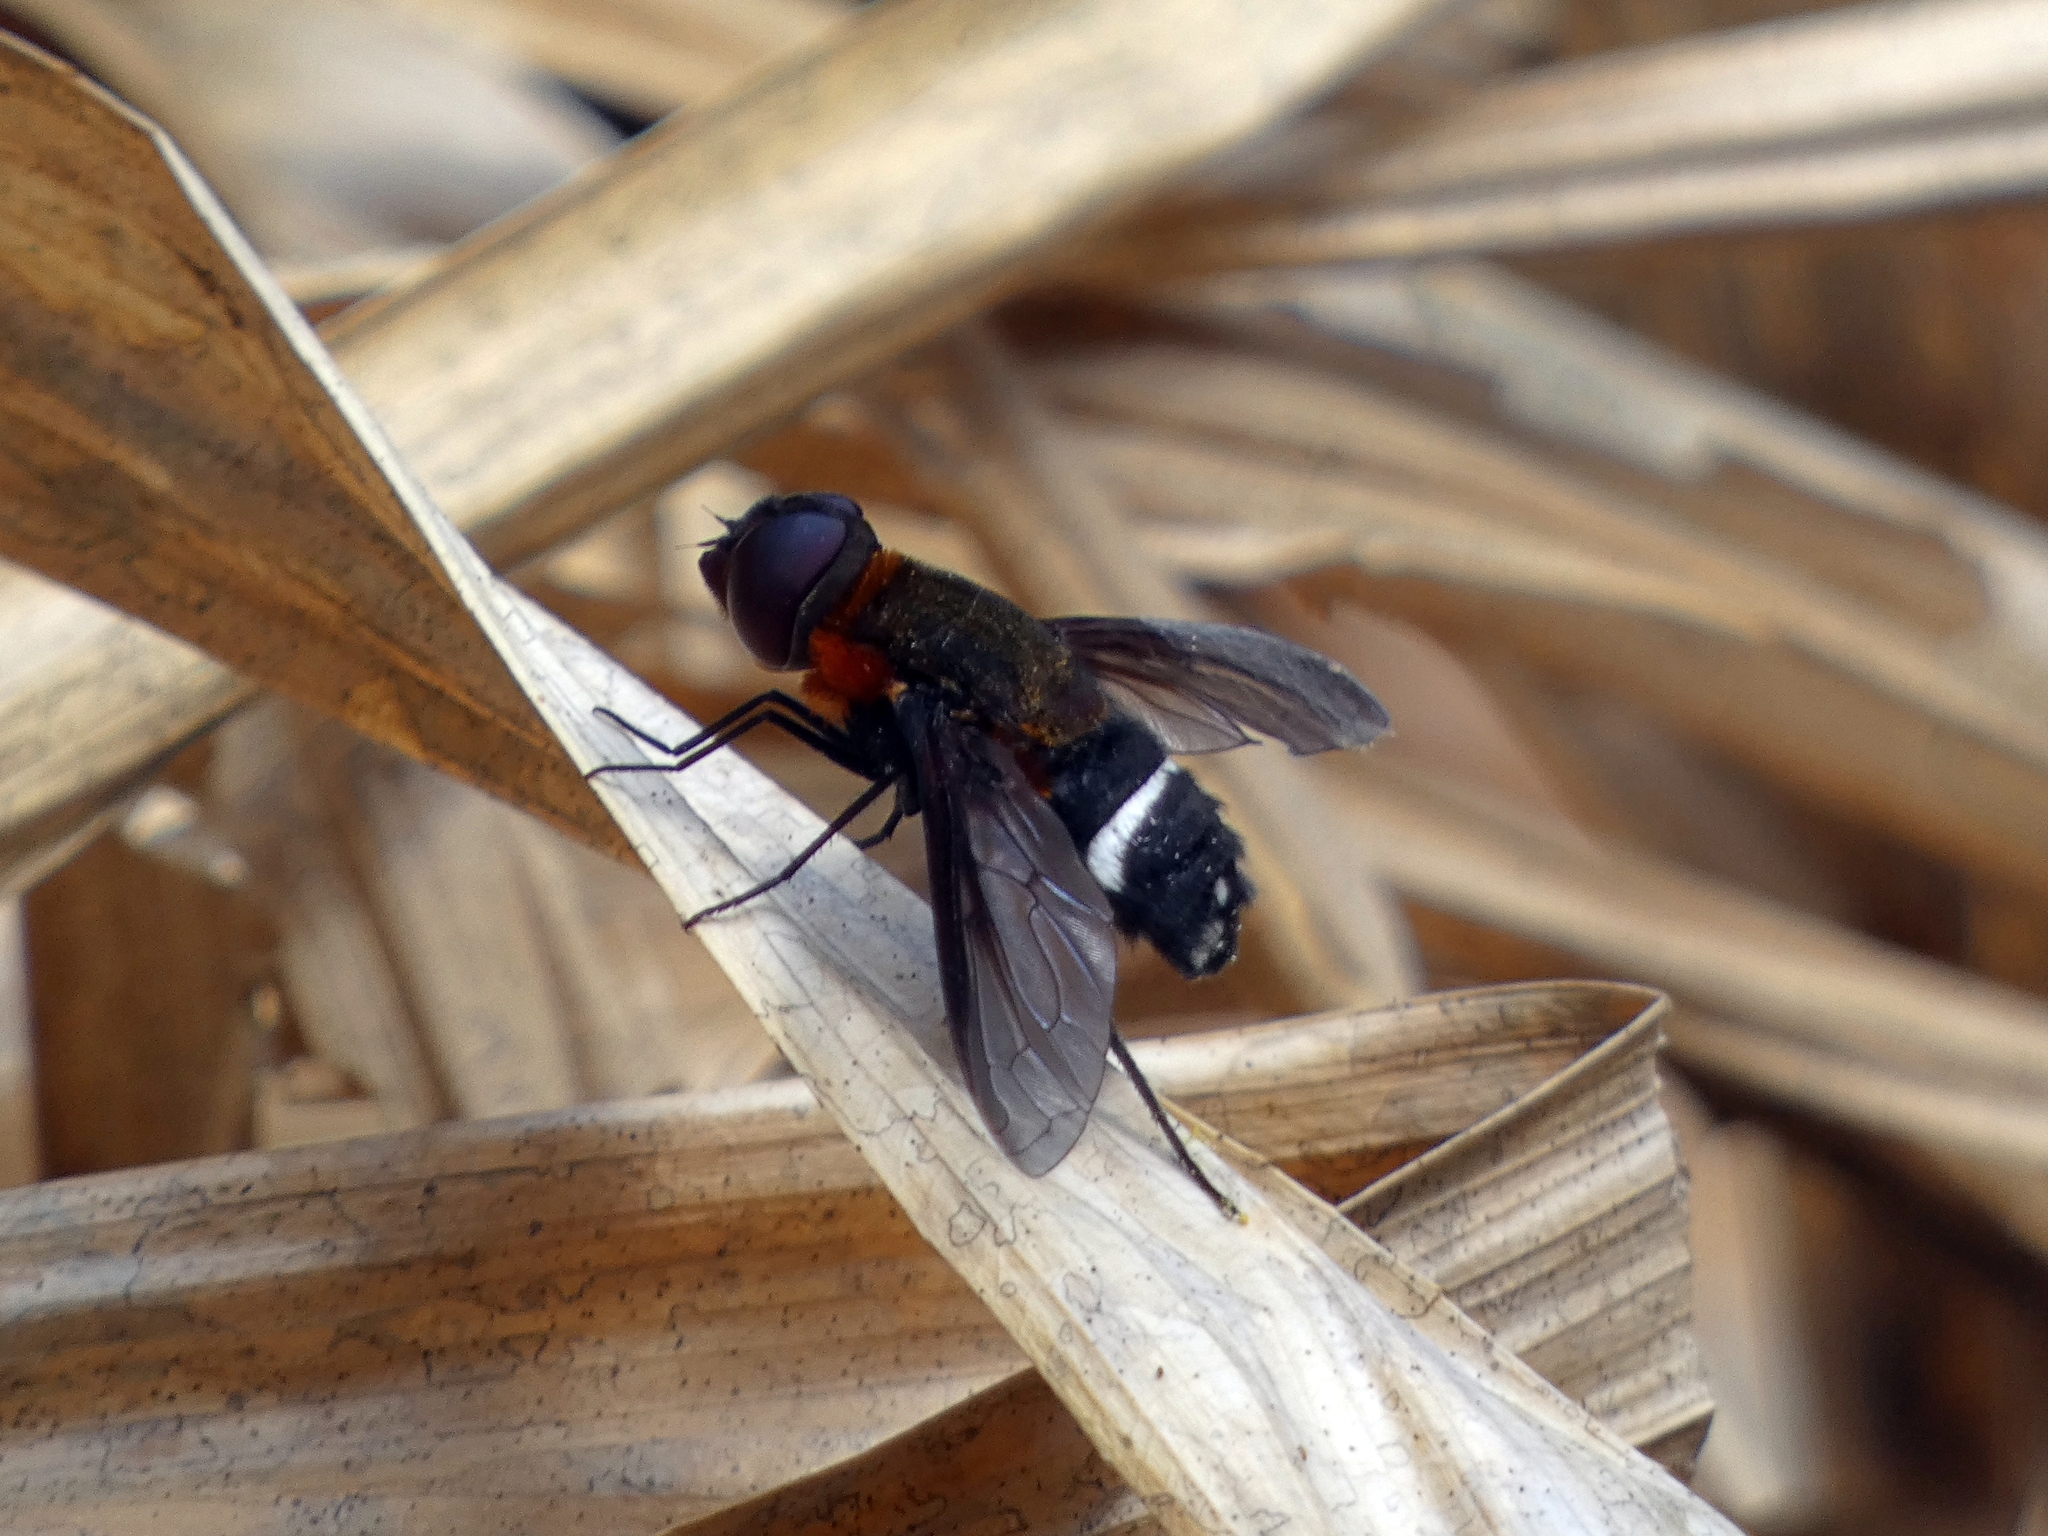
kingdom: Animalia
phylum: Arthropoda
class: Insecta
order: Diptera
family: Bombyliidae
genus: Ligyra
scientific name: Ligyra doryca
